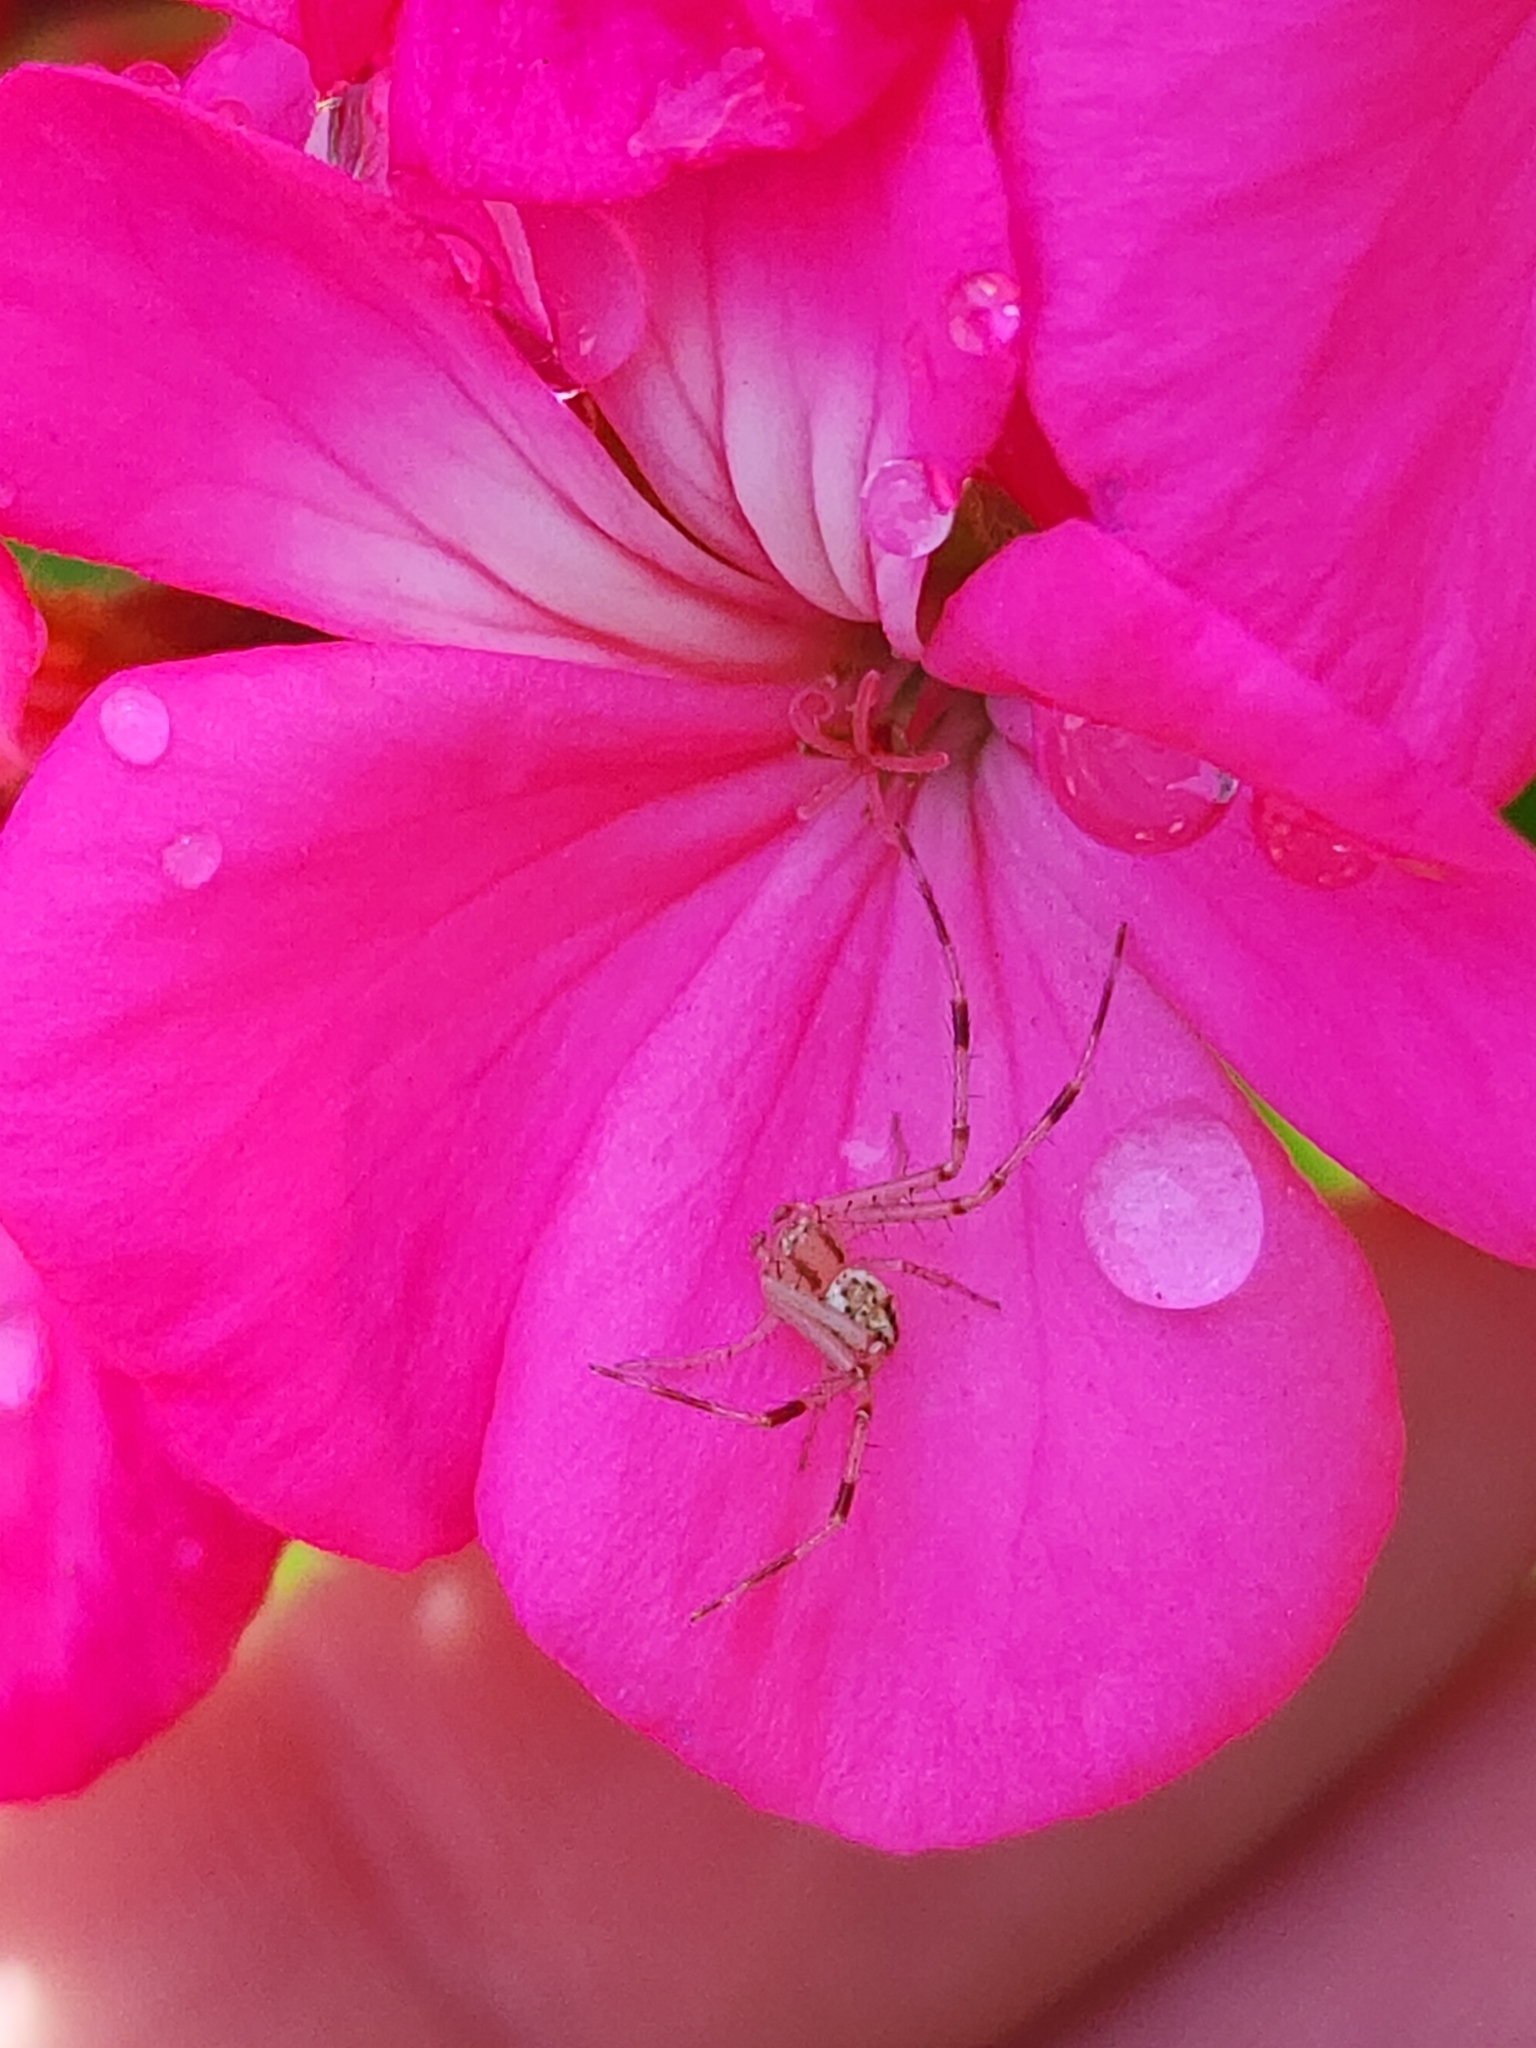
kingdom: Animalia
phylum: Arthropoda
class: Arachnida
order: Araneae
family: Thomisidae
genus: Misumenops
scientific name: Misumenops
